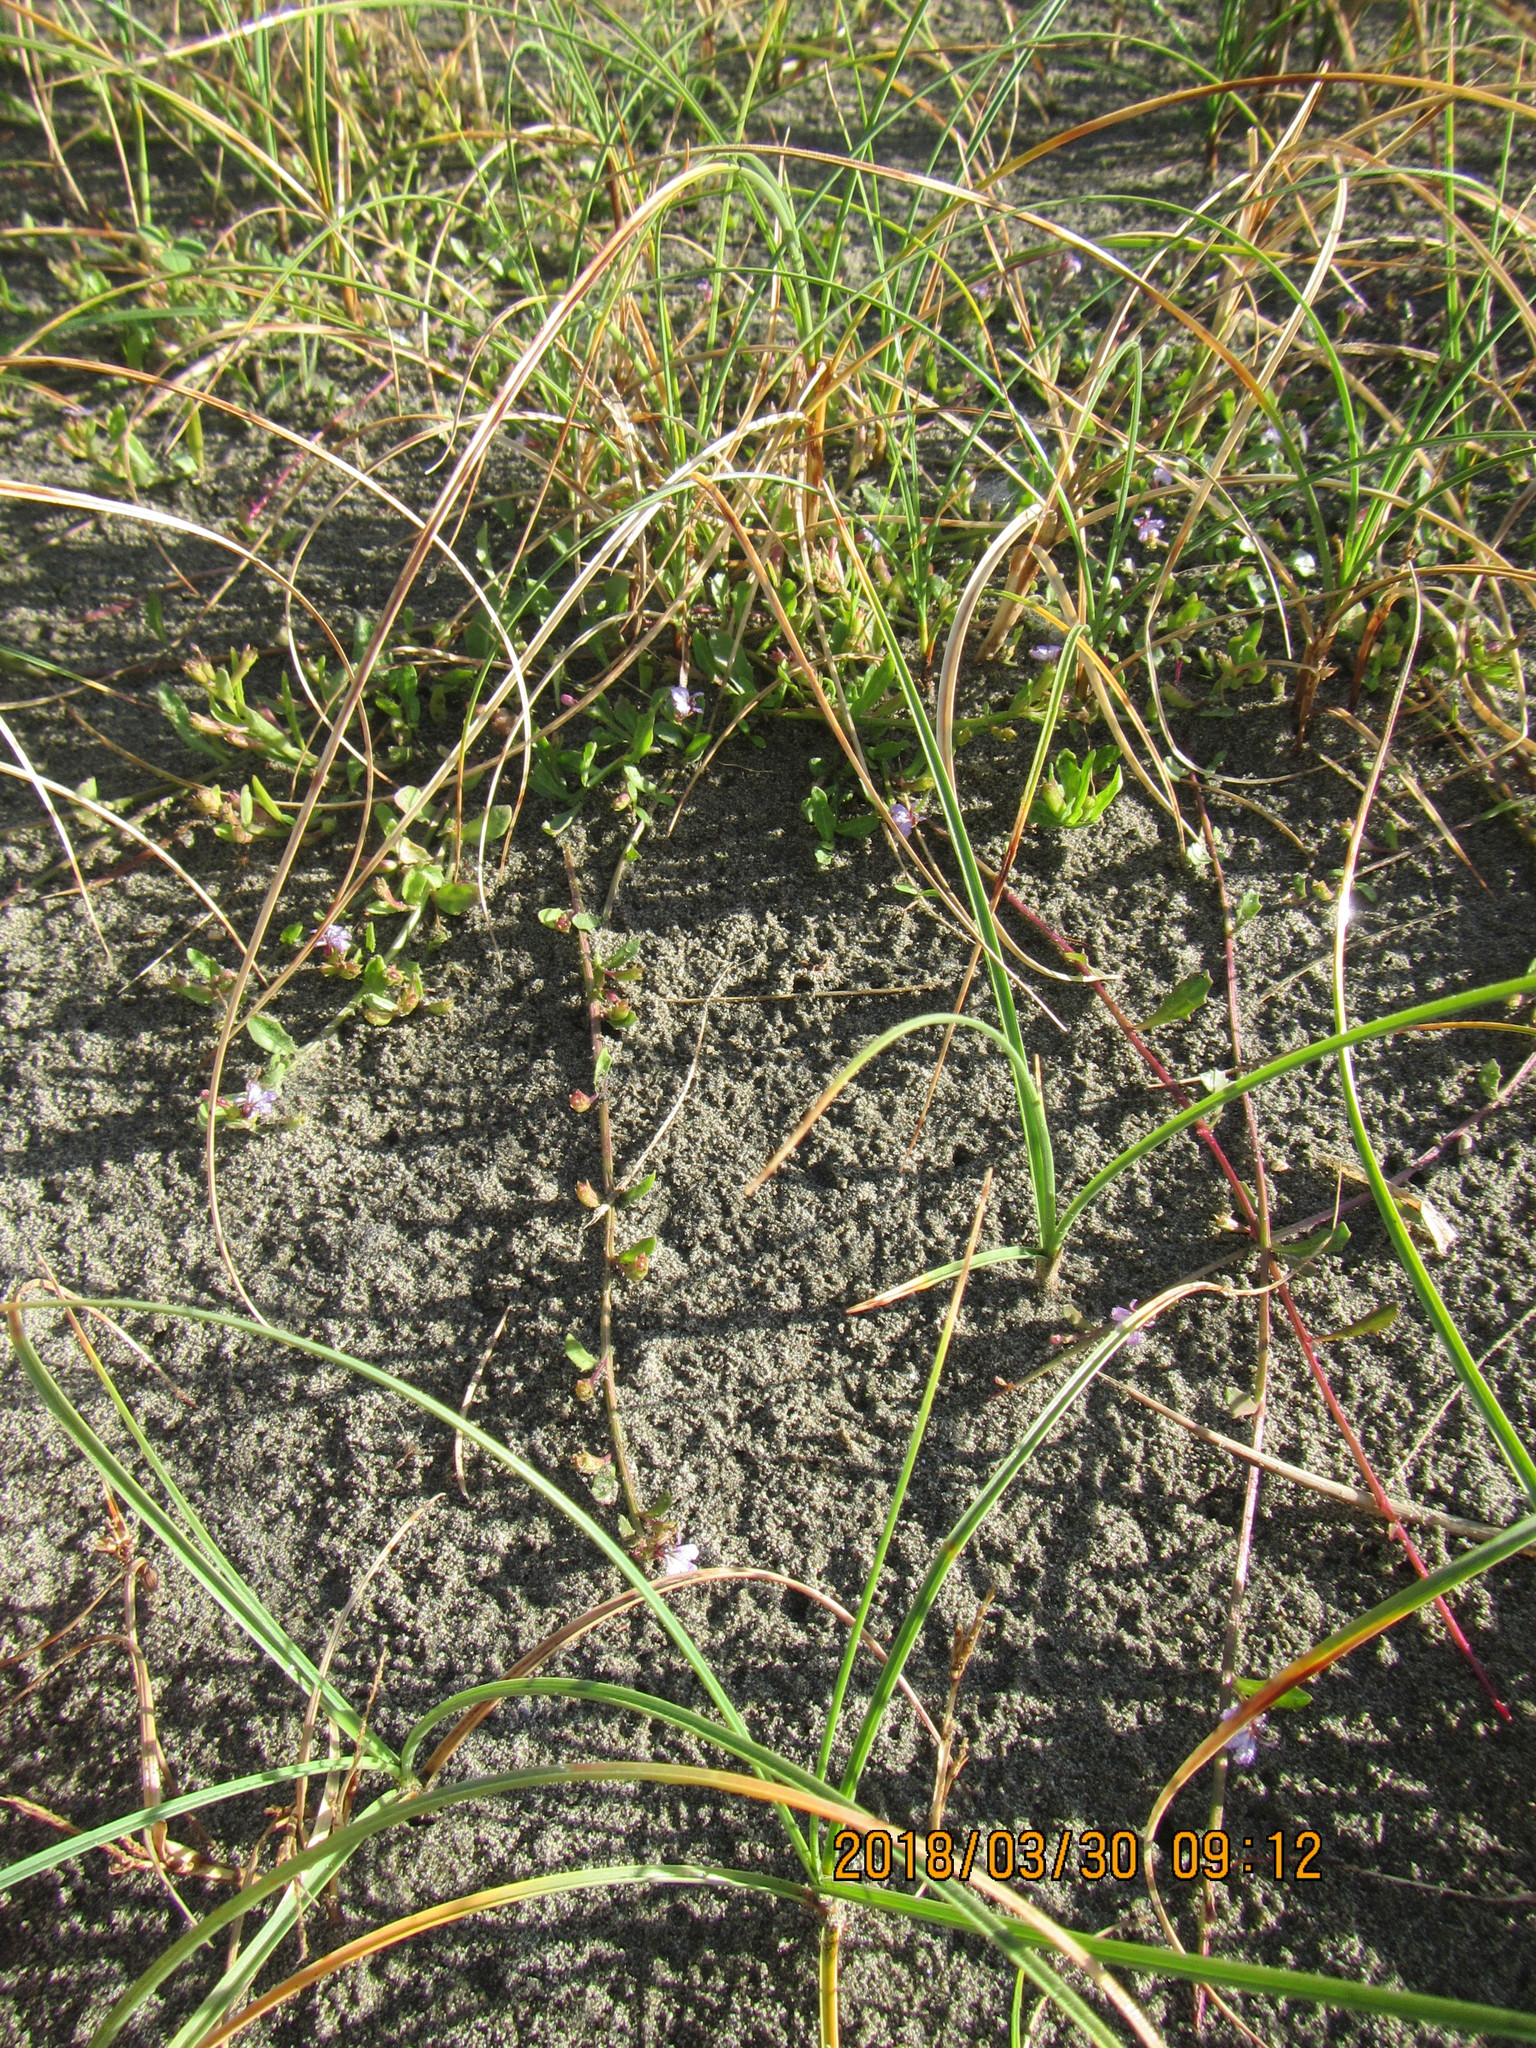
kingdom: Plantae
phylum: Tracheophyta
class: Magnoliopsida
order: Asterales
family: Campanulaceae
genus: Lobelia
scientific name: Lobelia anceps
